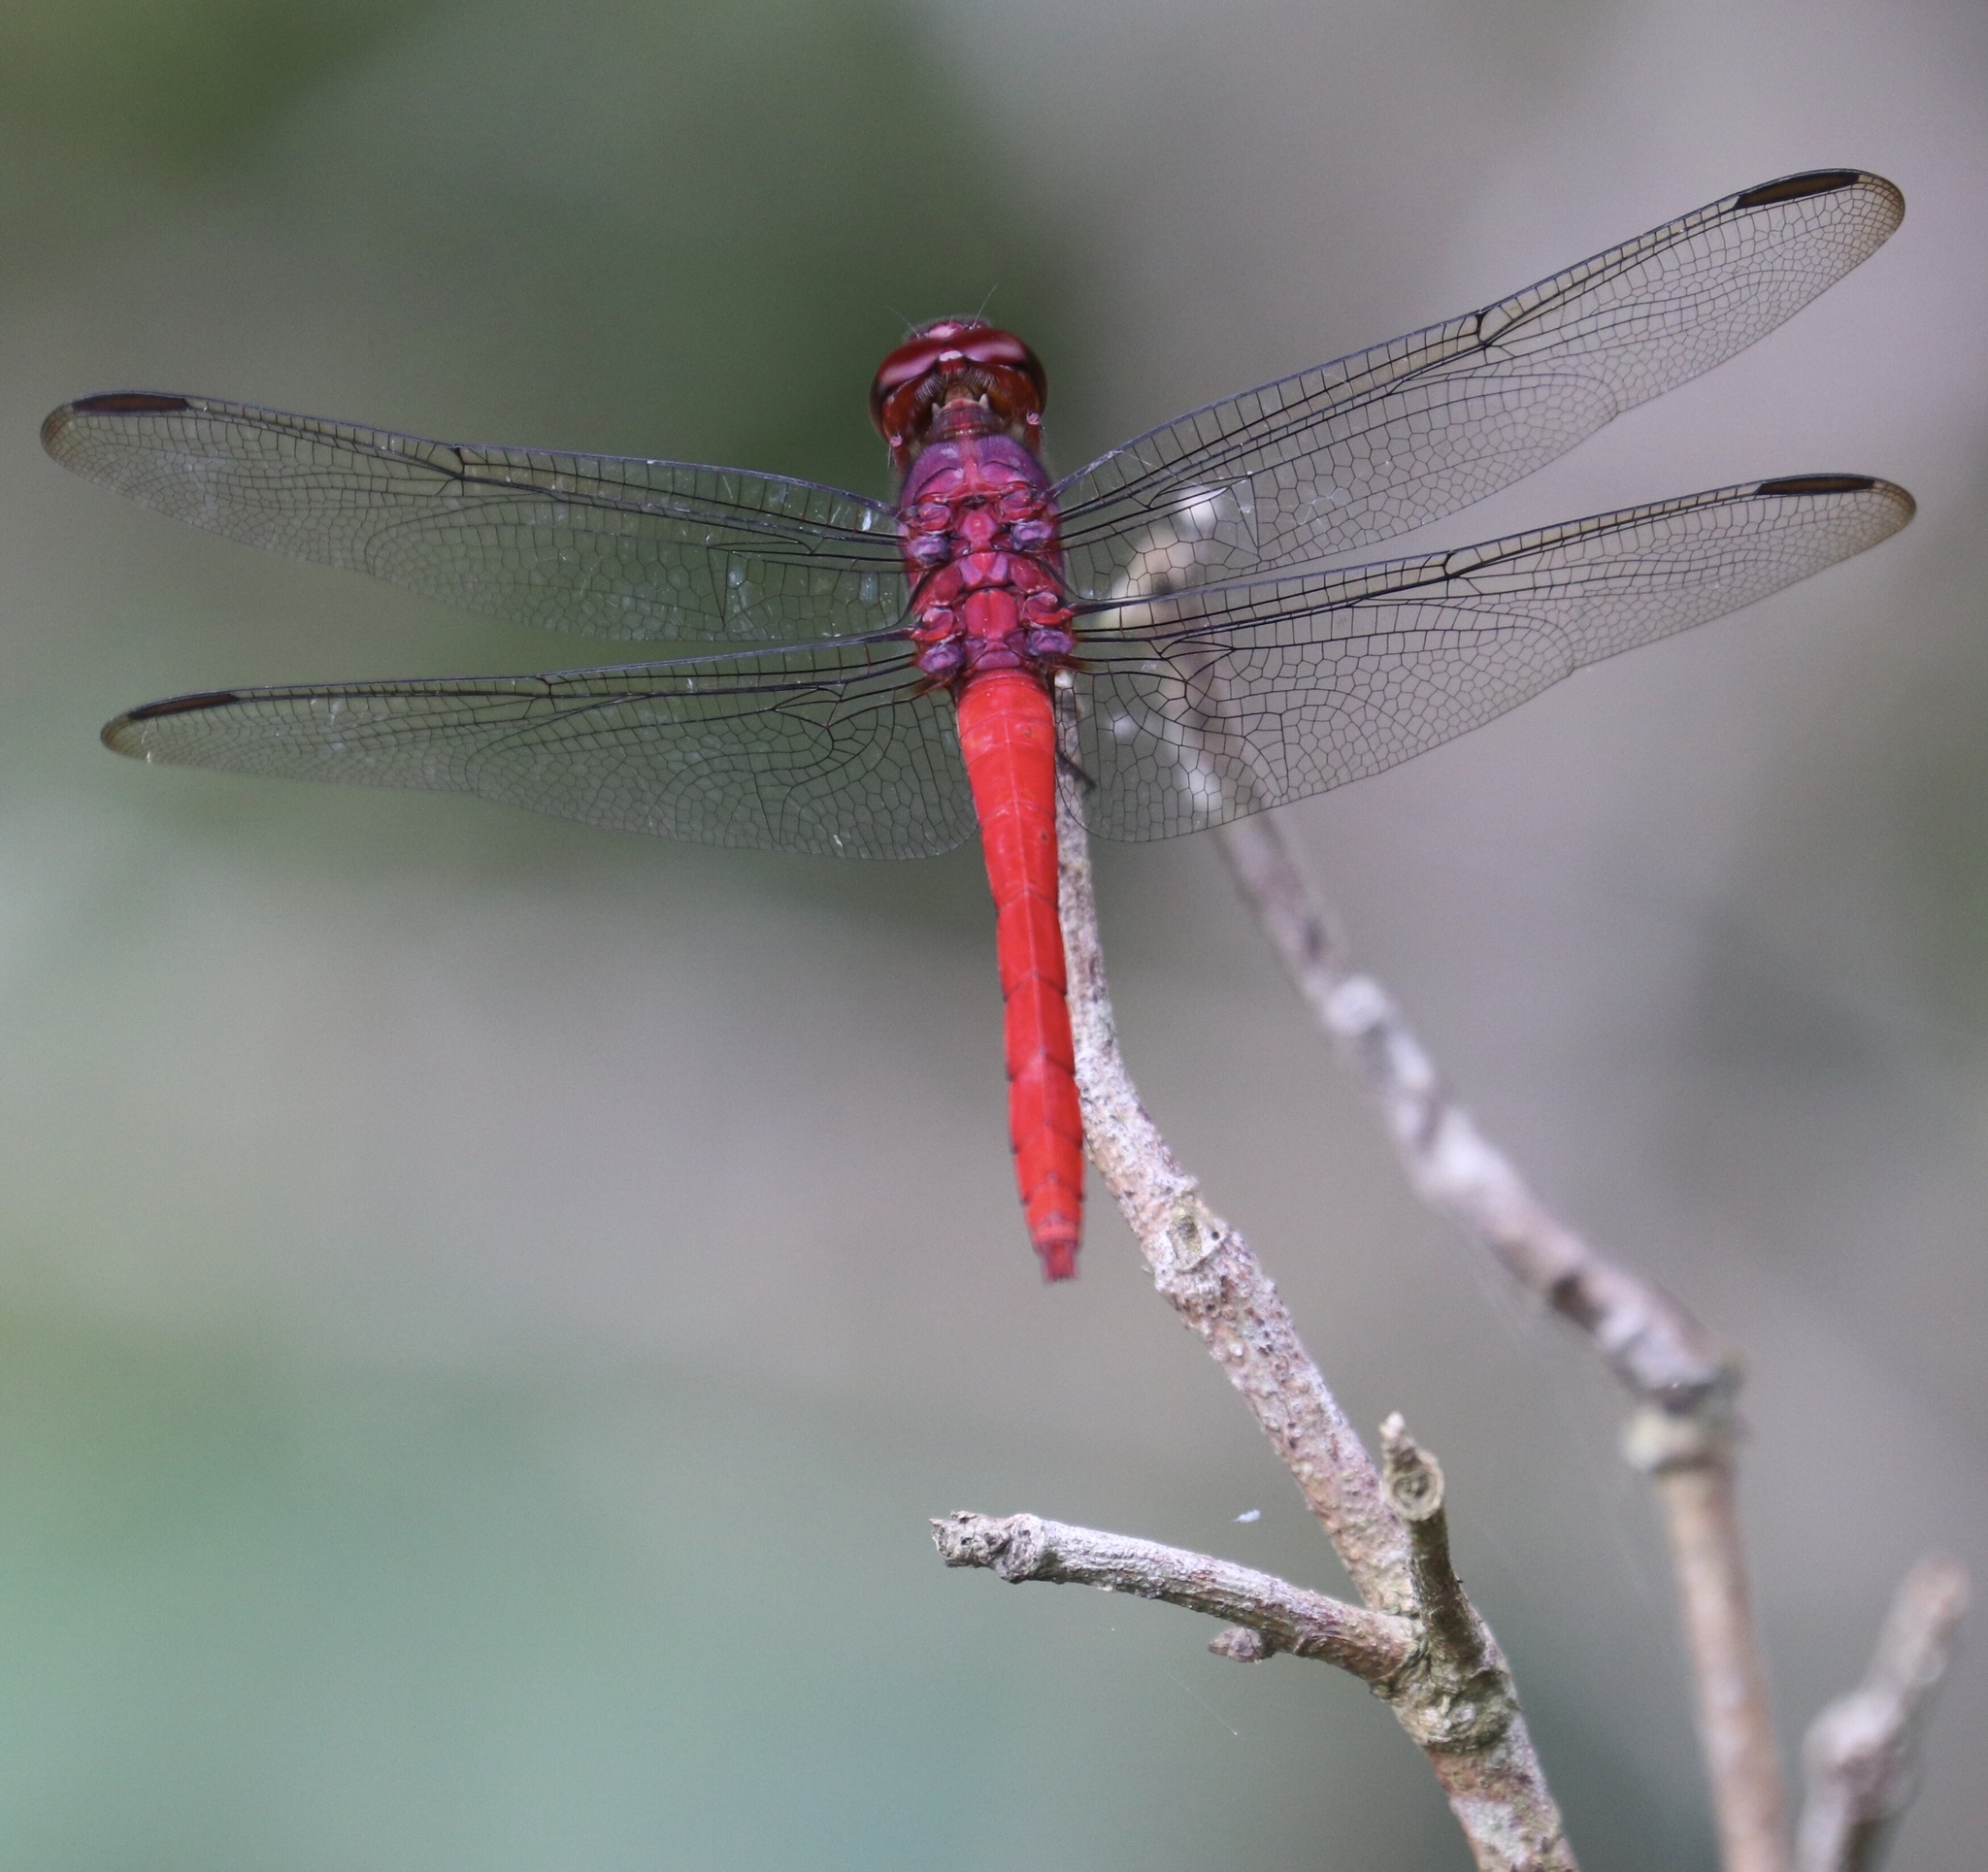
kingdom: Animalia
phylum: Arthropoda
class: Insecta
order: Odonata
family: Libellulidae
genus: Orthemis
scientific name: Orthemis schmidti
